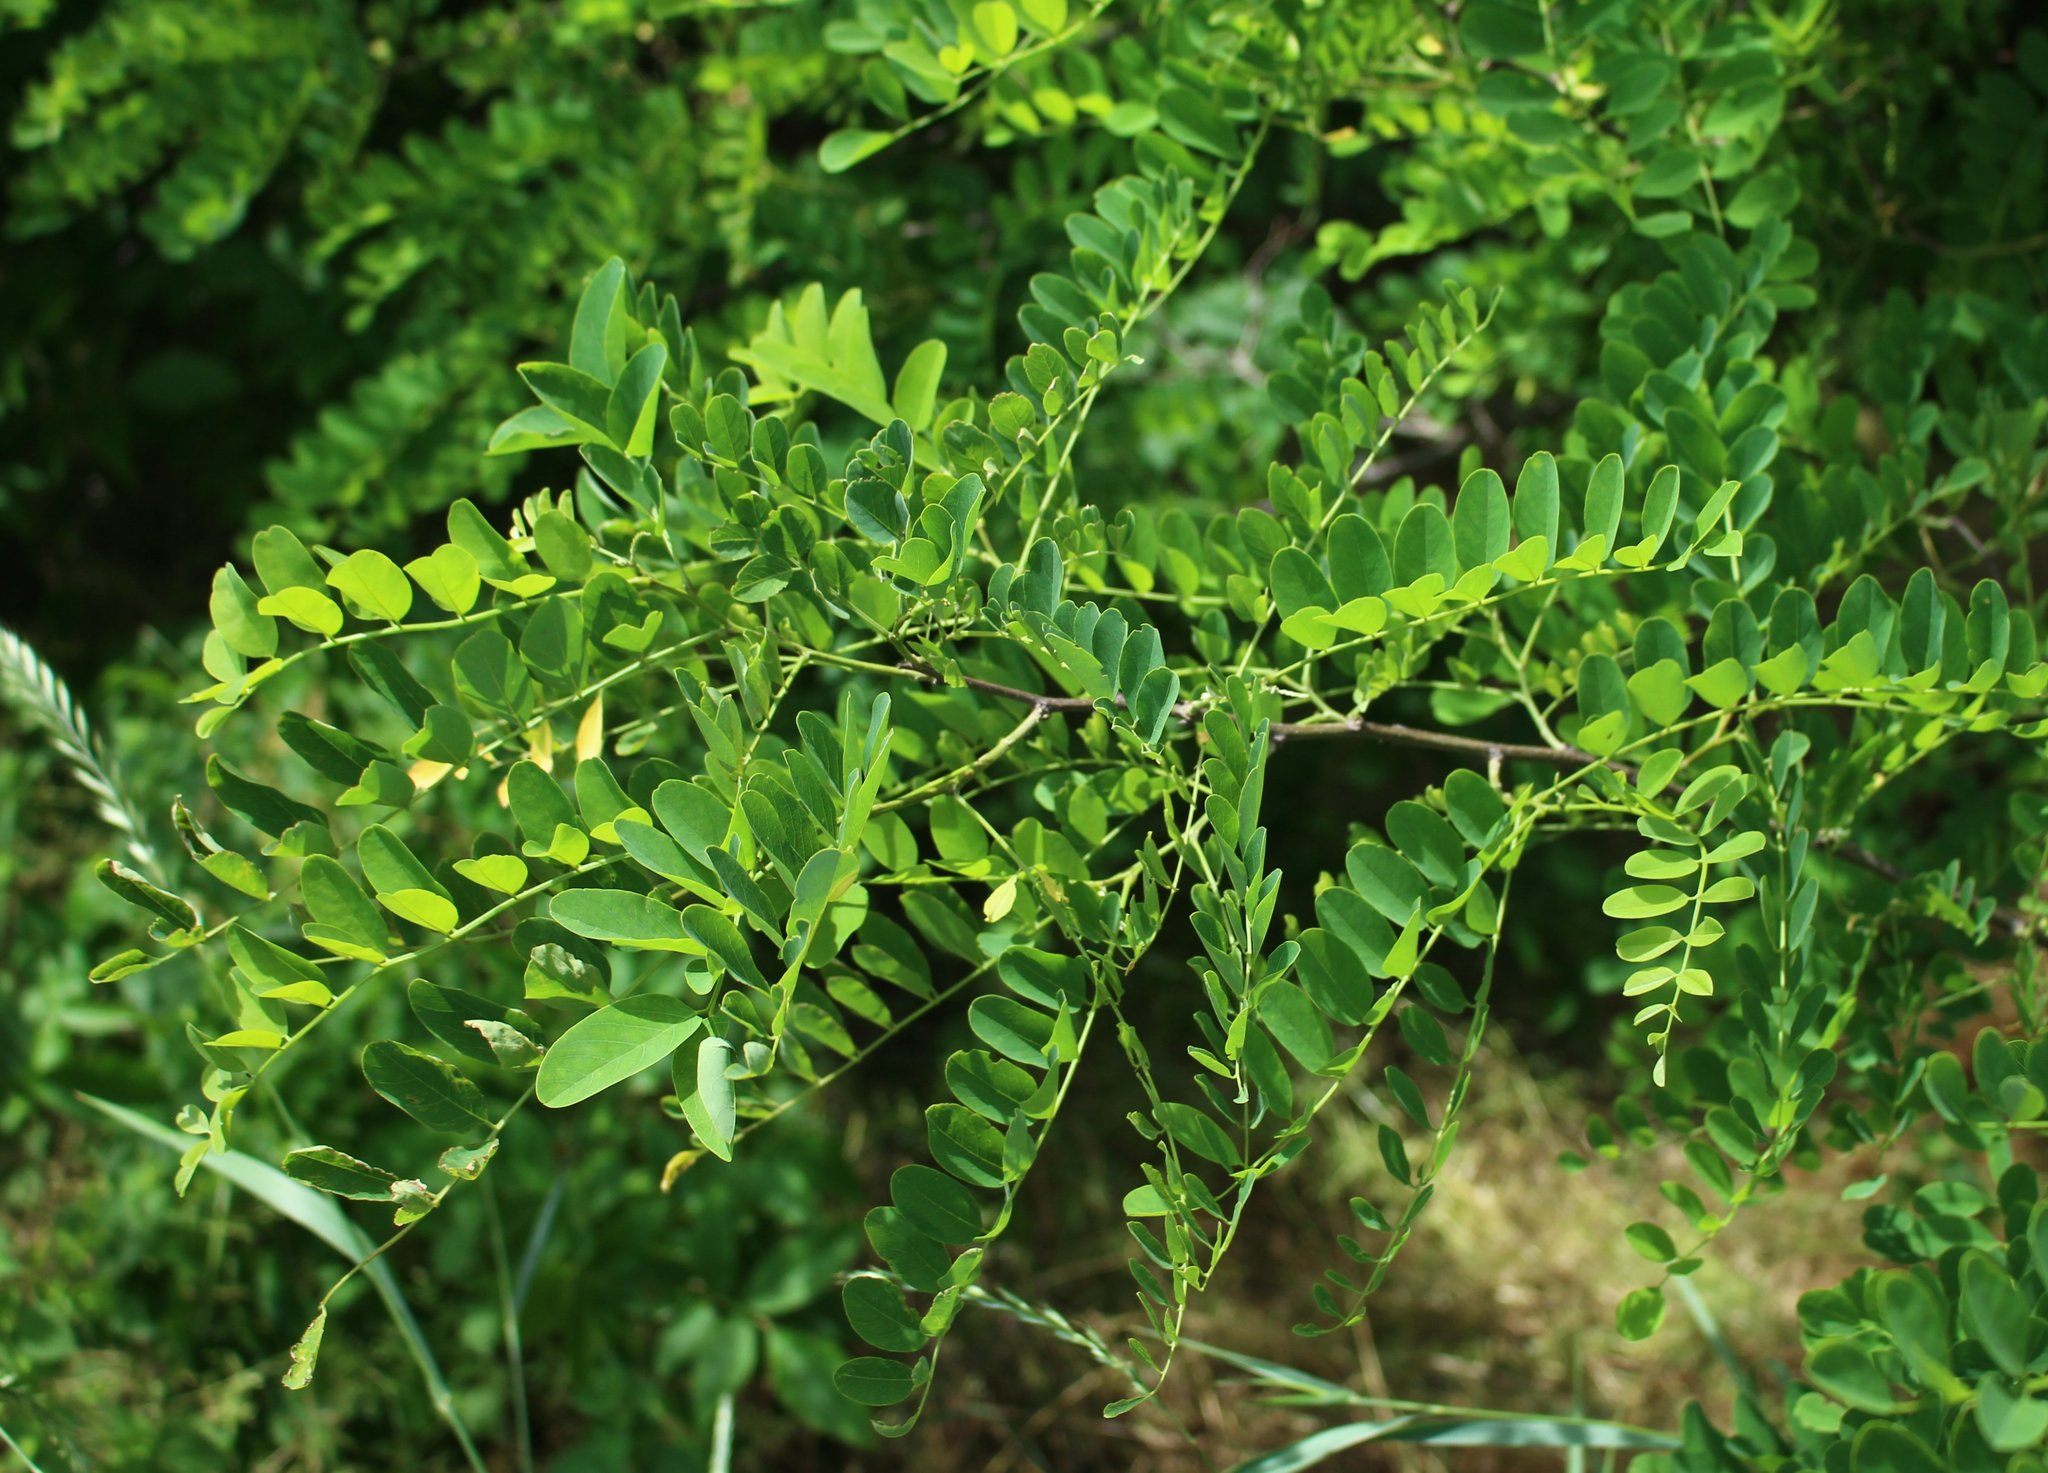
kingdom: Plantae
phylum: Tracheophyta
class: Magnoliopsida
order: Fabales
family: Fabaceae
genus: Robinia
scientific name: Robinia pseudoacacia
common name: Black locust
